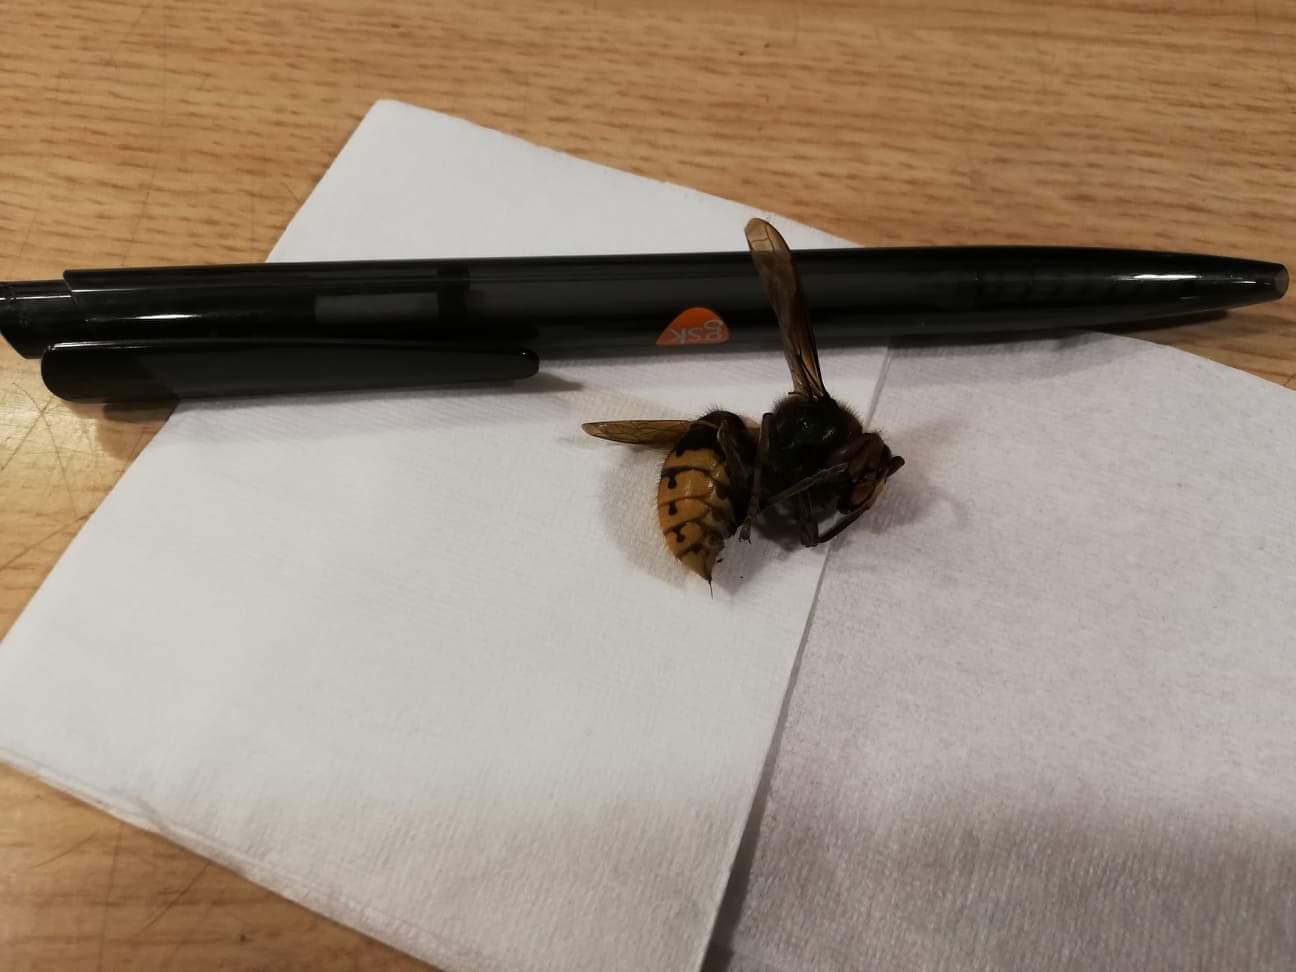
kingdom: Animalia
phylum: Arthropoda
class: Insecta
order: Hymenoptera
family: Vespidae
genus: Vespa
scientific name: Vespa crabro
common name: Hornet
